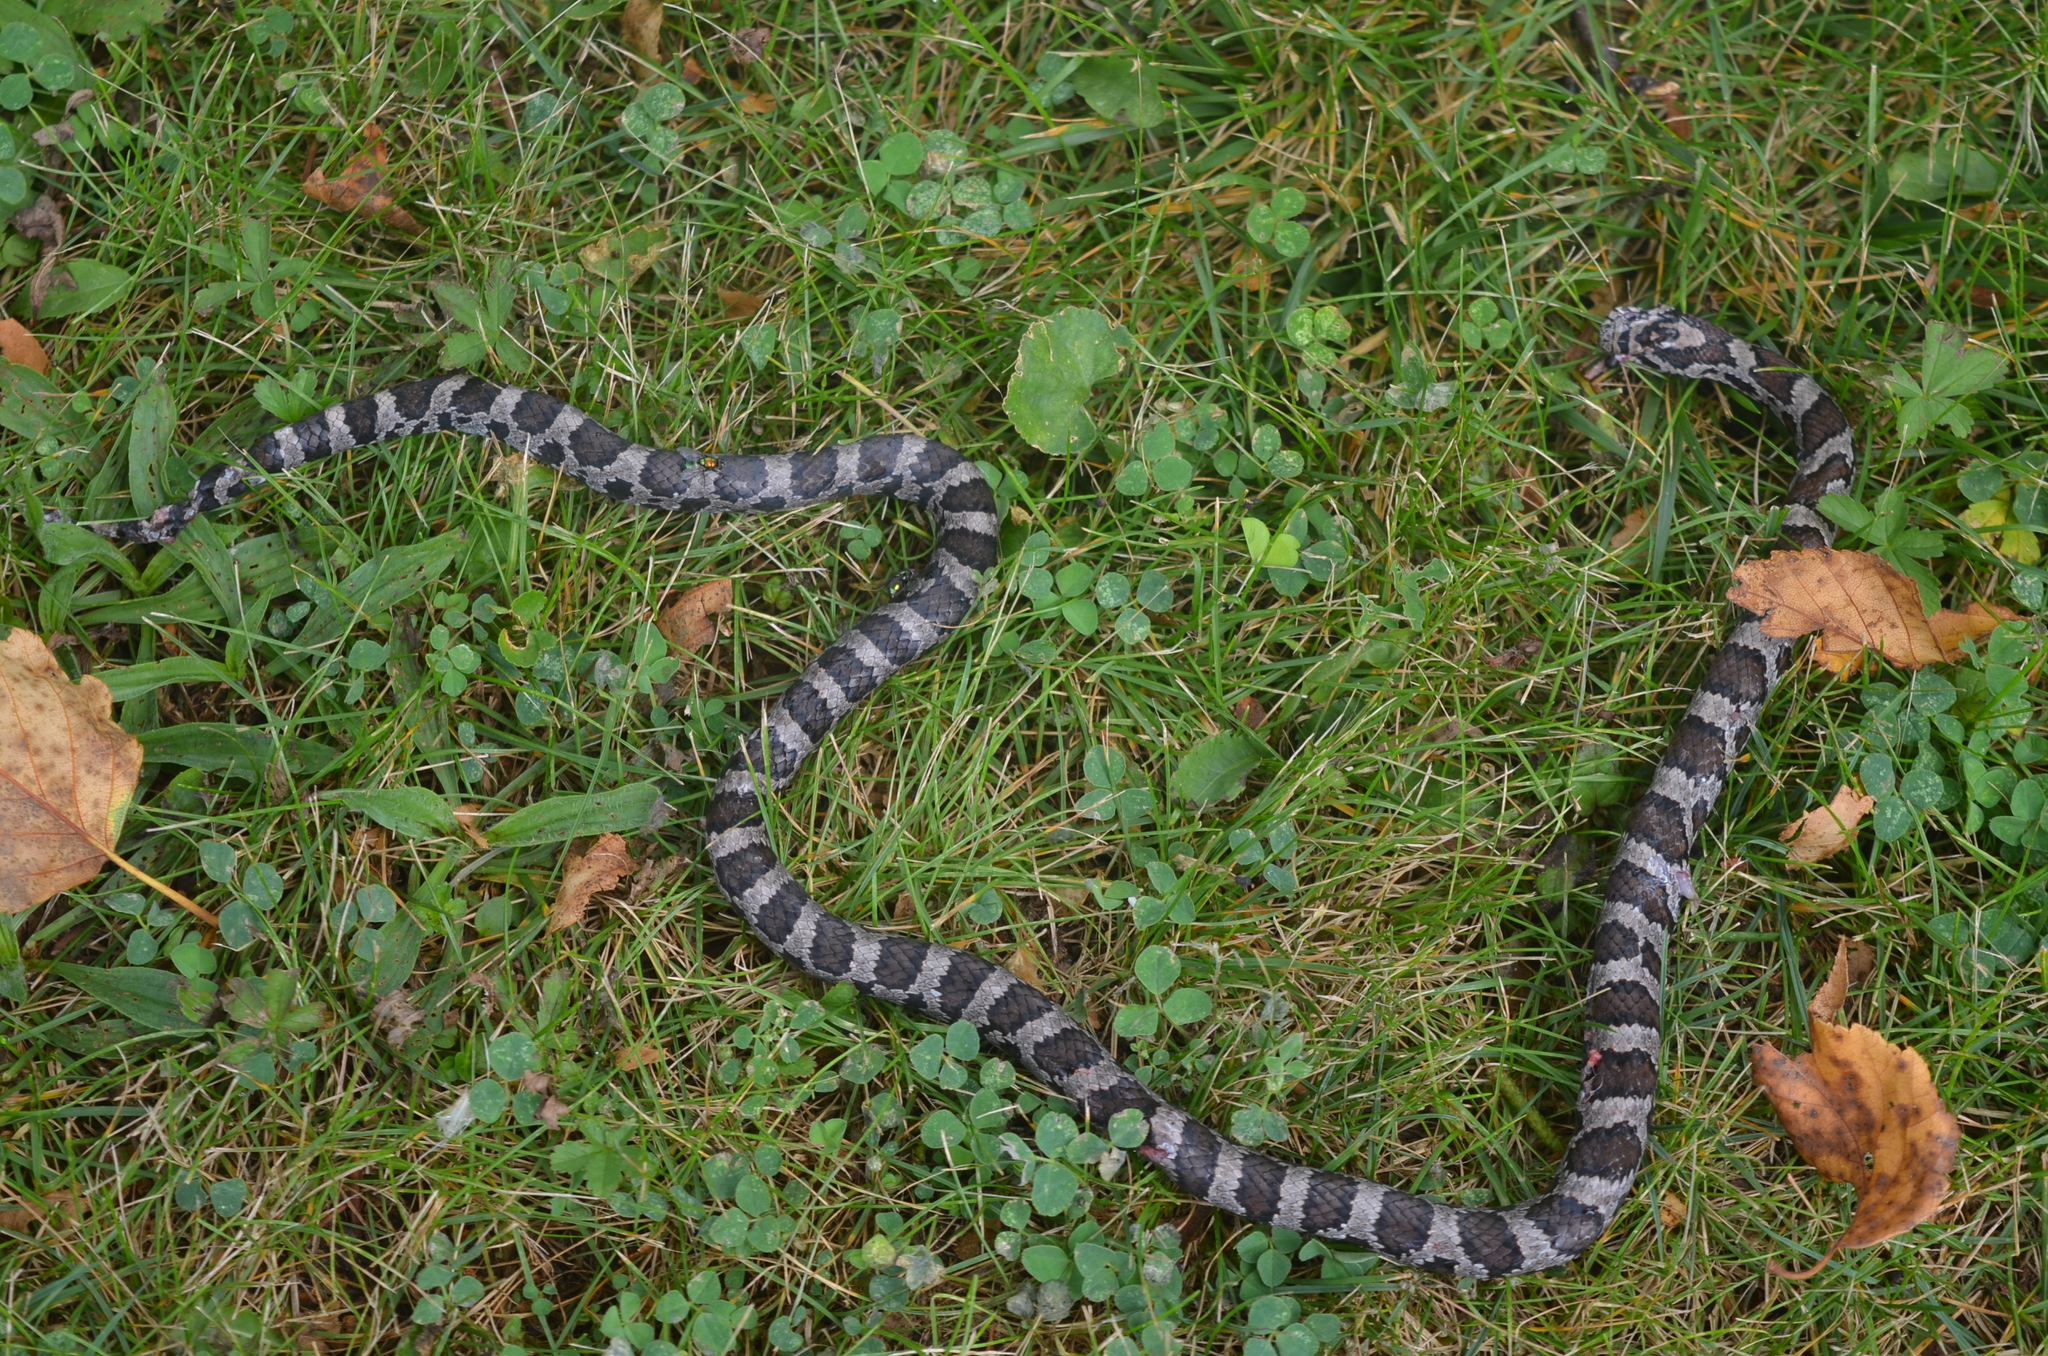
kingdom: Animalia
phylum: Chordata
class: Squamata
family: Colubridae
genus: Lampropeltis
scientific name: Lampropeltis triangulum
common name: Eastern milksnake
